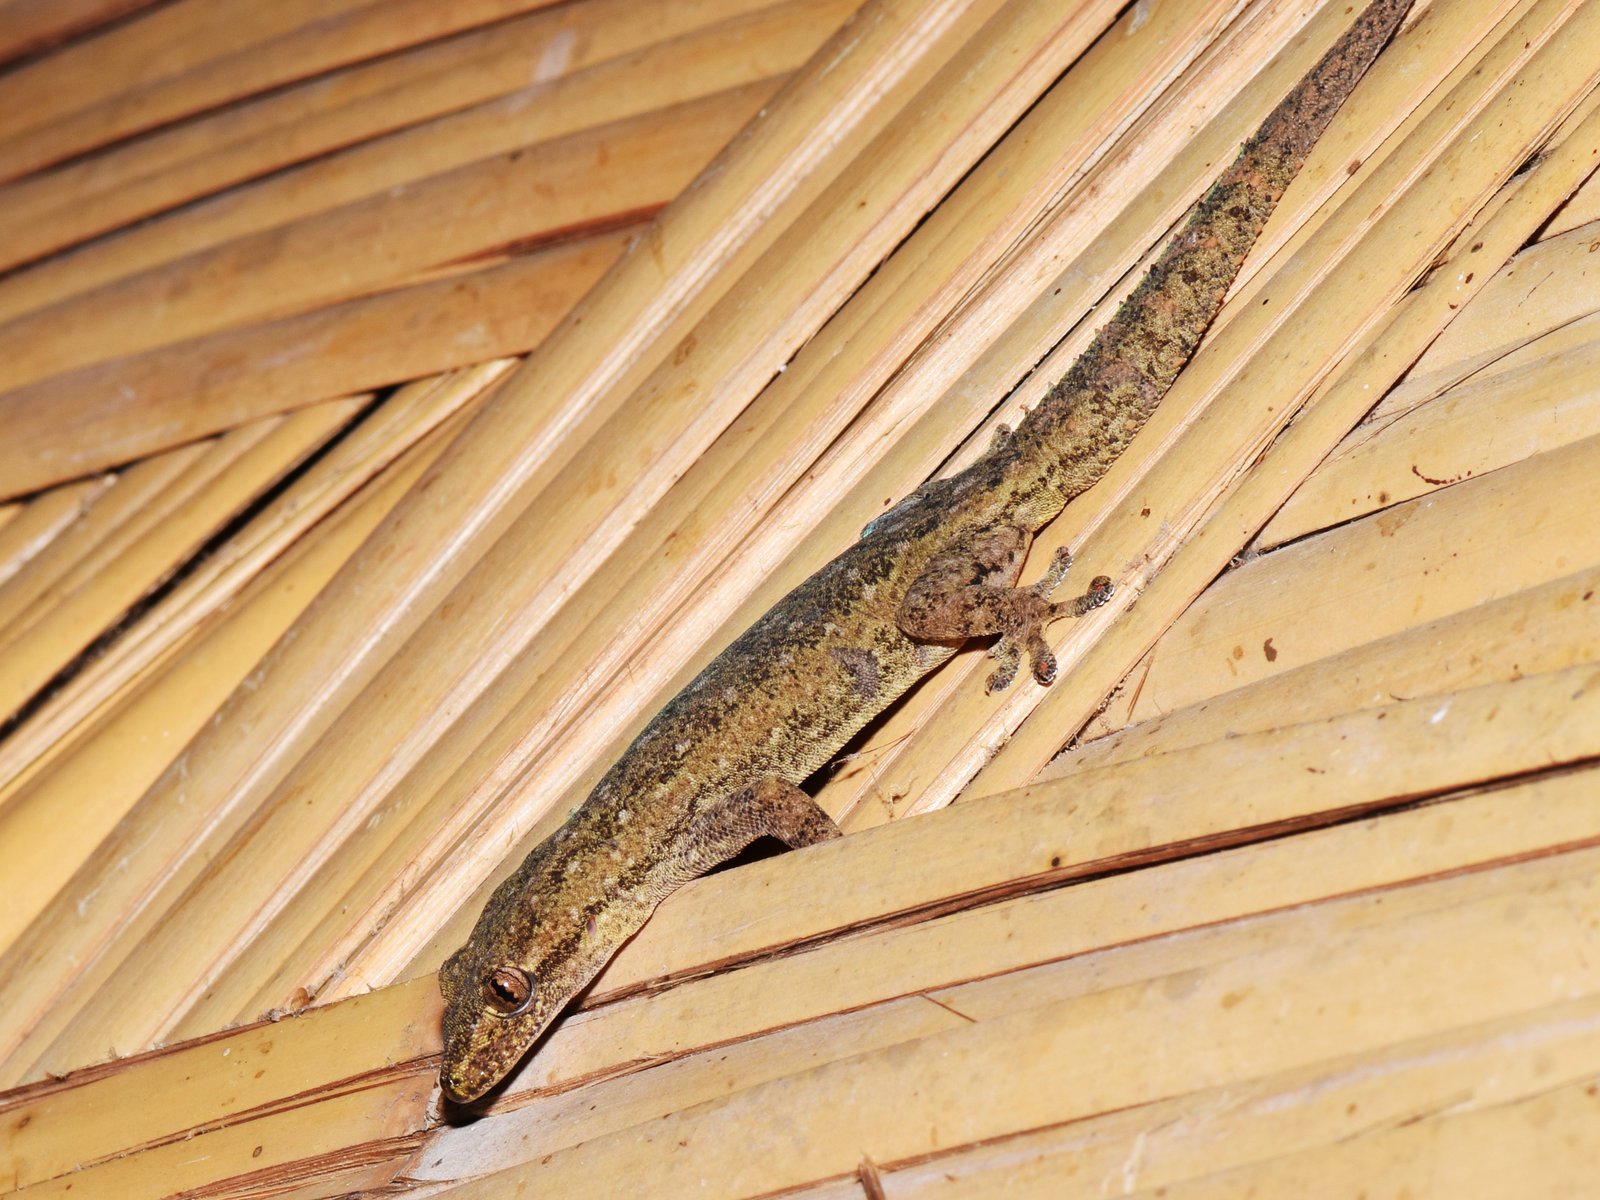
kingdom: Animalia
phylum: Chordata
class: Squamata
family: Gekkonidae
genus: Hemidactylus
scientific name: Hemidactylus frenatus
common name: Common house gecko
